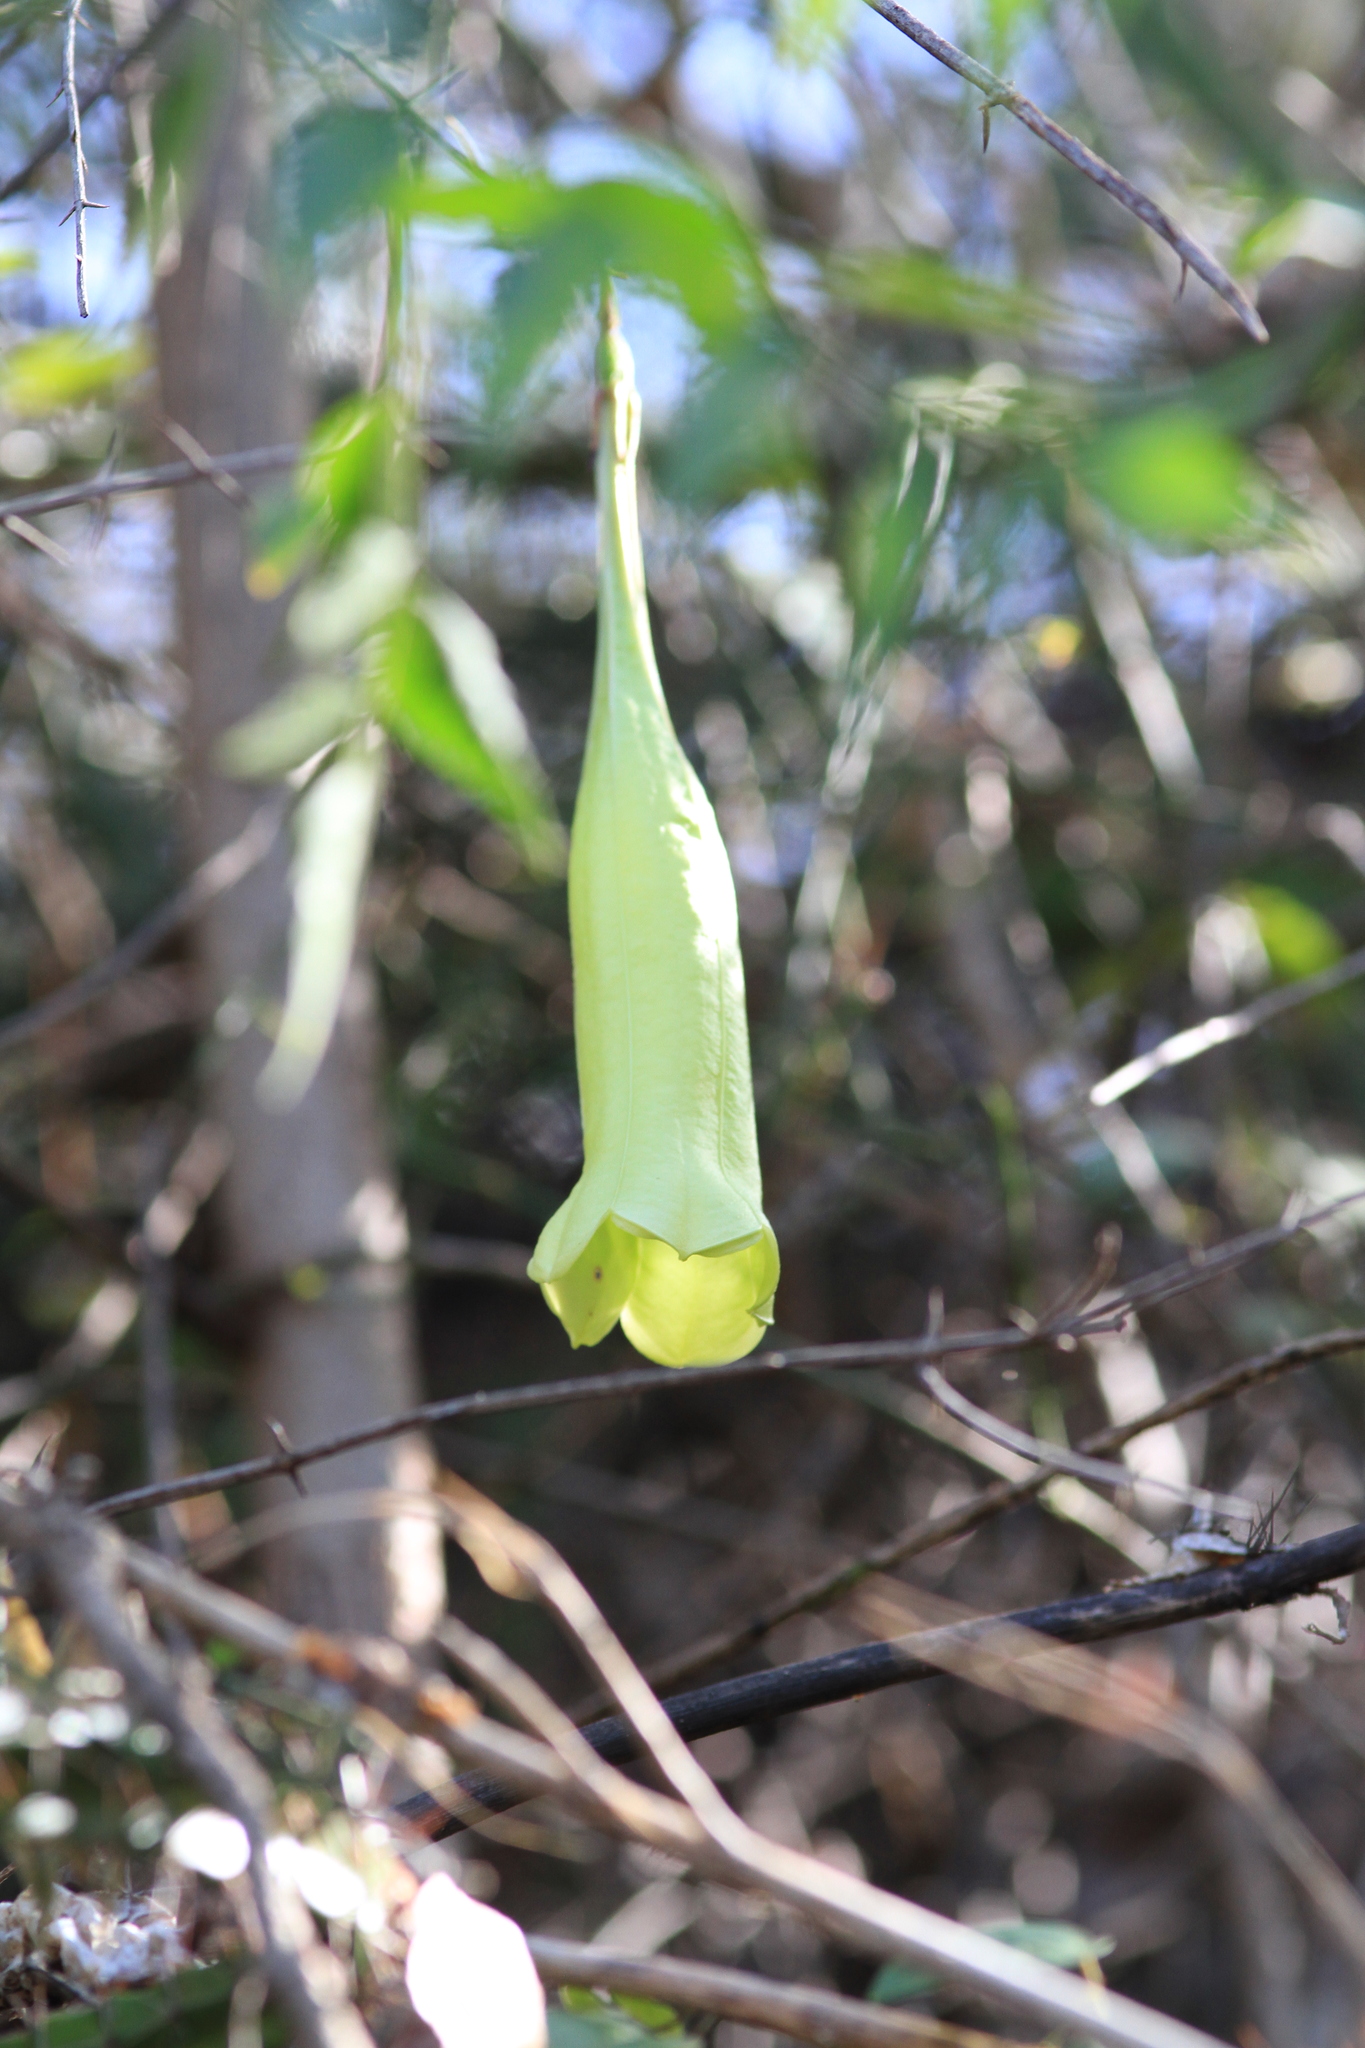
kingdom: Plantae
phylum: Tracheophyta
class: Magnoliopsida
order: Gentianales
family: Rubiaceae
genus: Catesbaea
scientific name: Catesbaea ekmaniana
